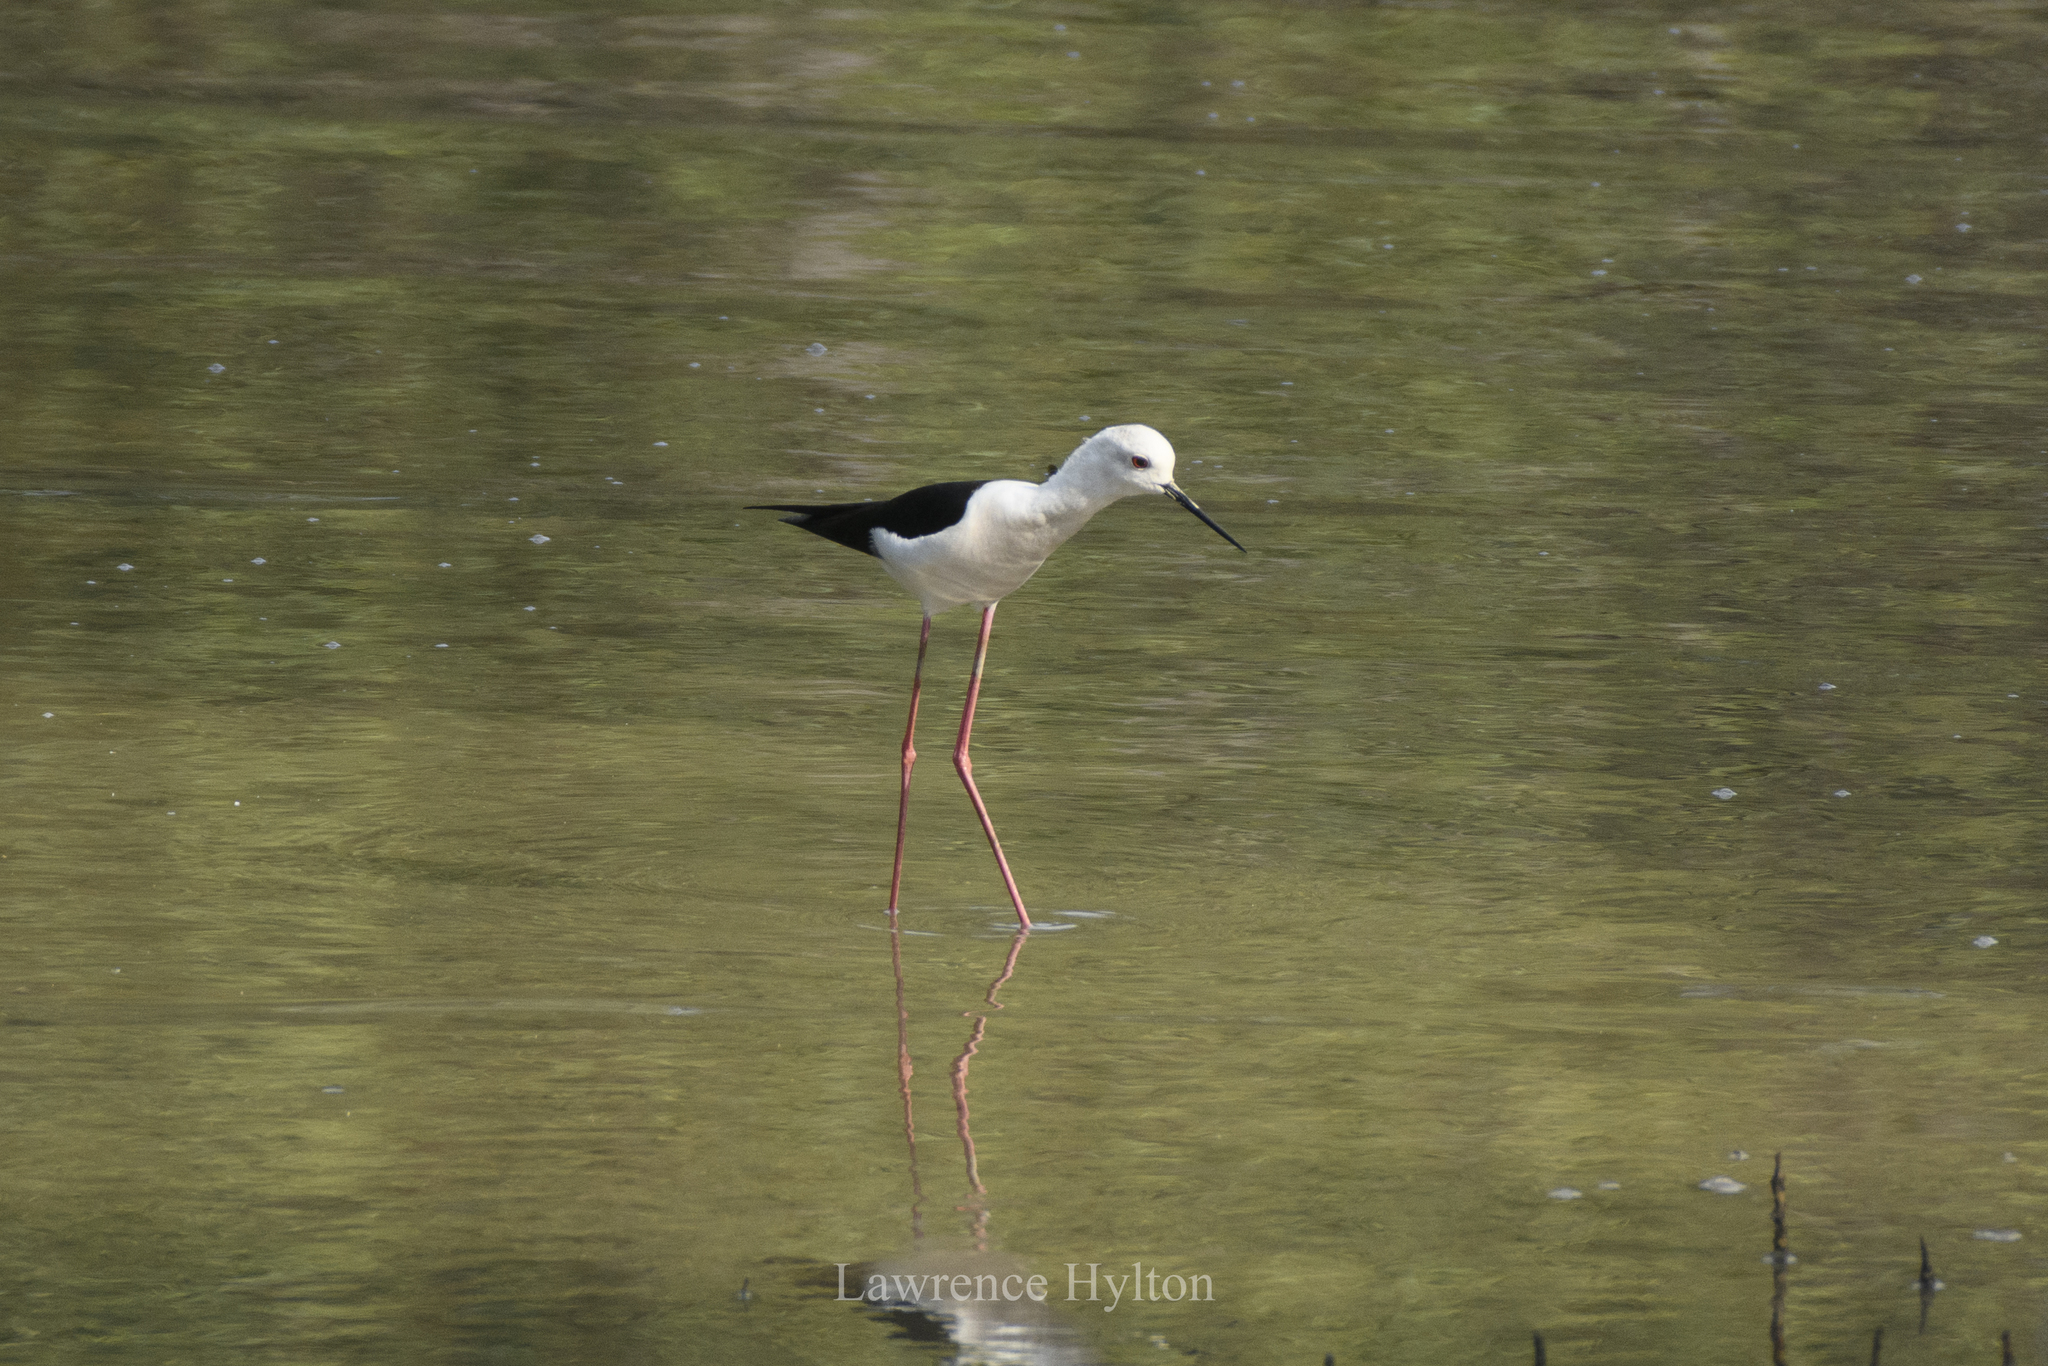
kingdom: Animalia
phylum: Chordata
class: Aves
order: Charadriiformes
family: Recurvirostridae
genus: Himantopus
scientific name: Himantopus himantopus
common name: Black-winged stilt
